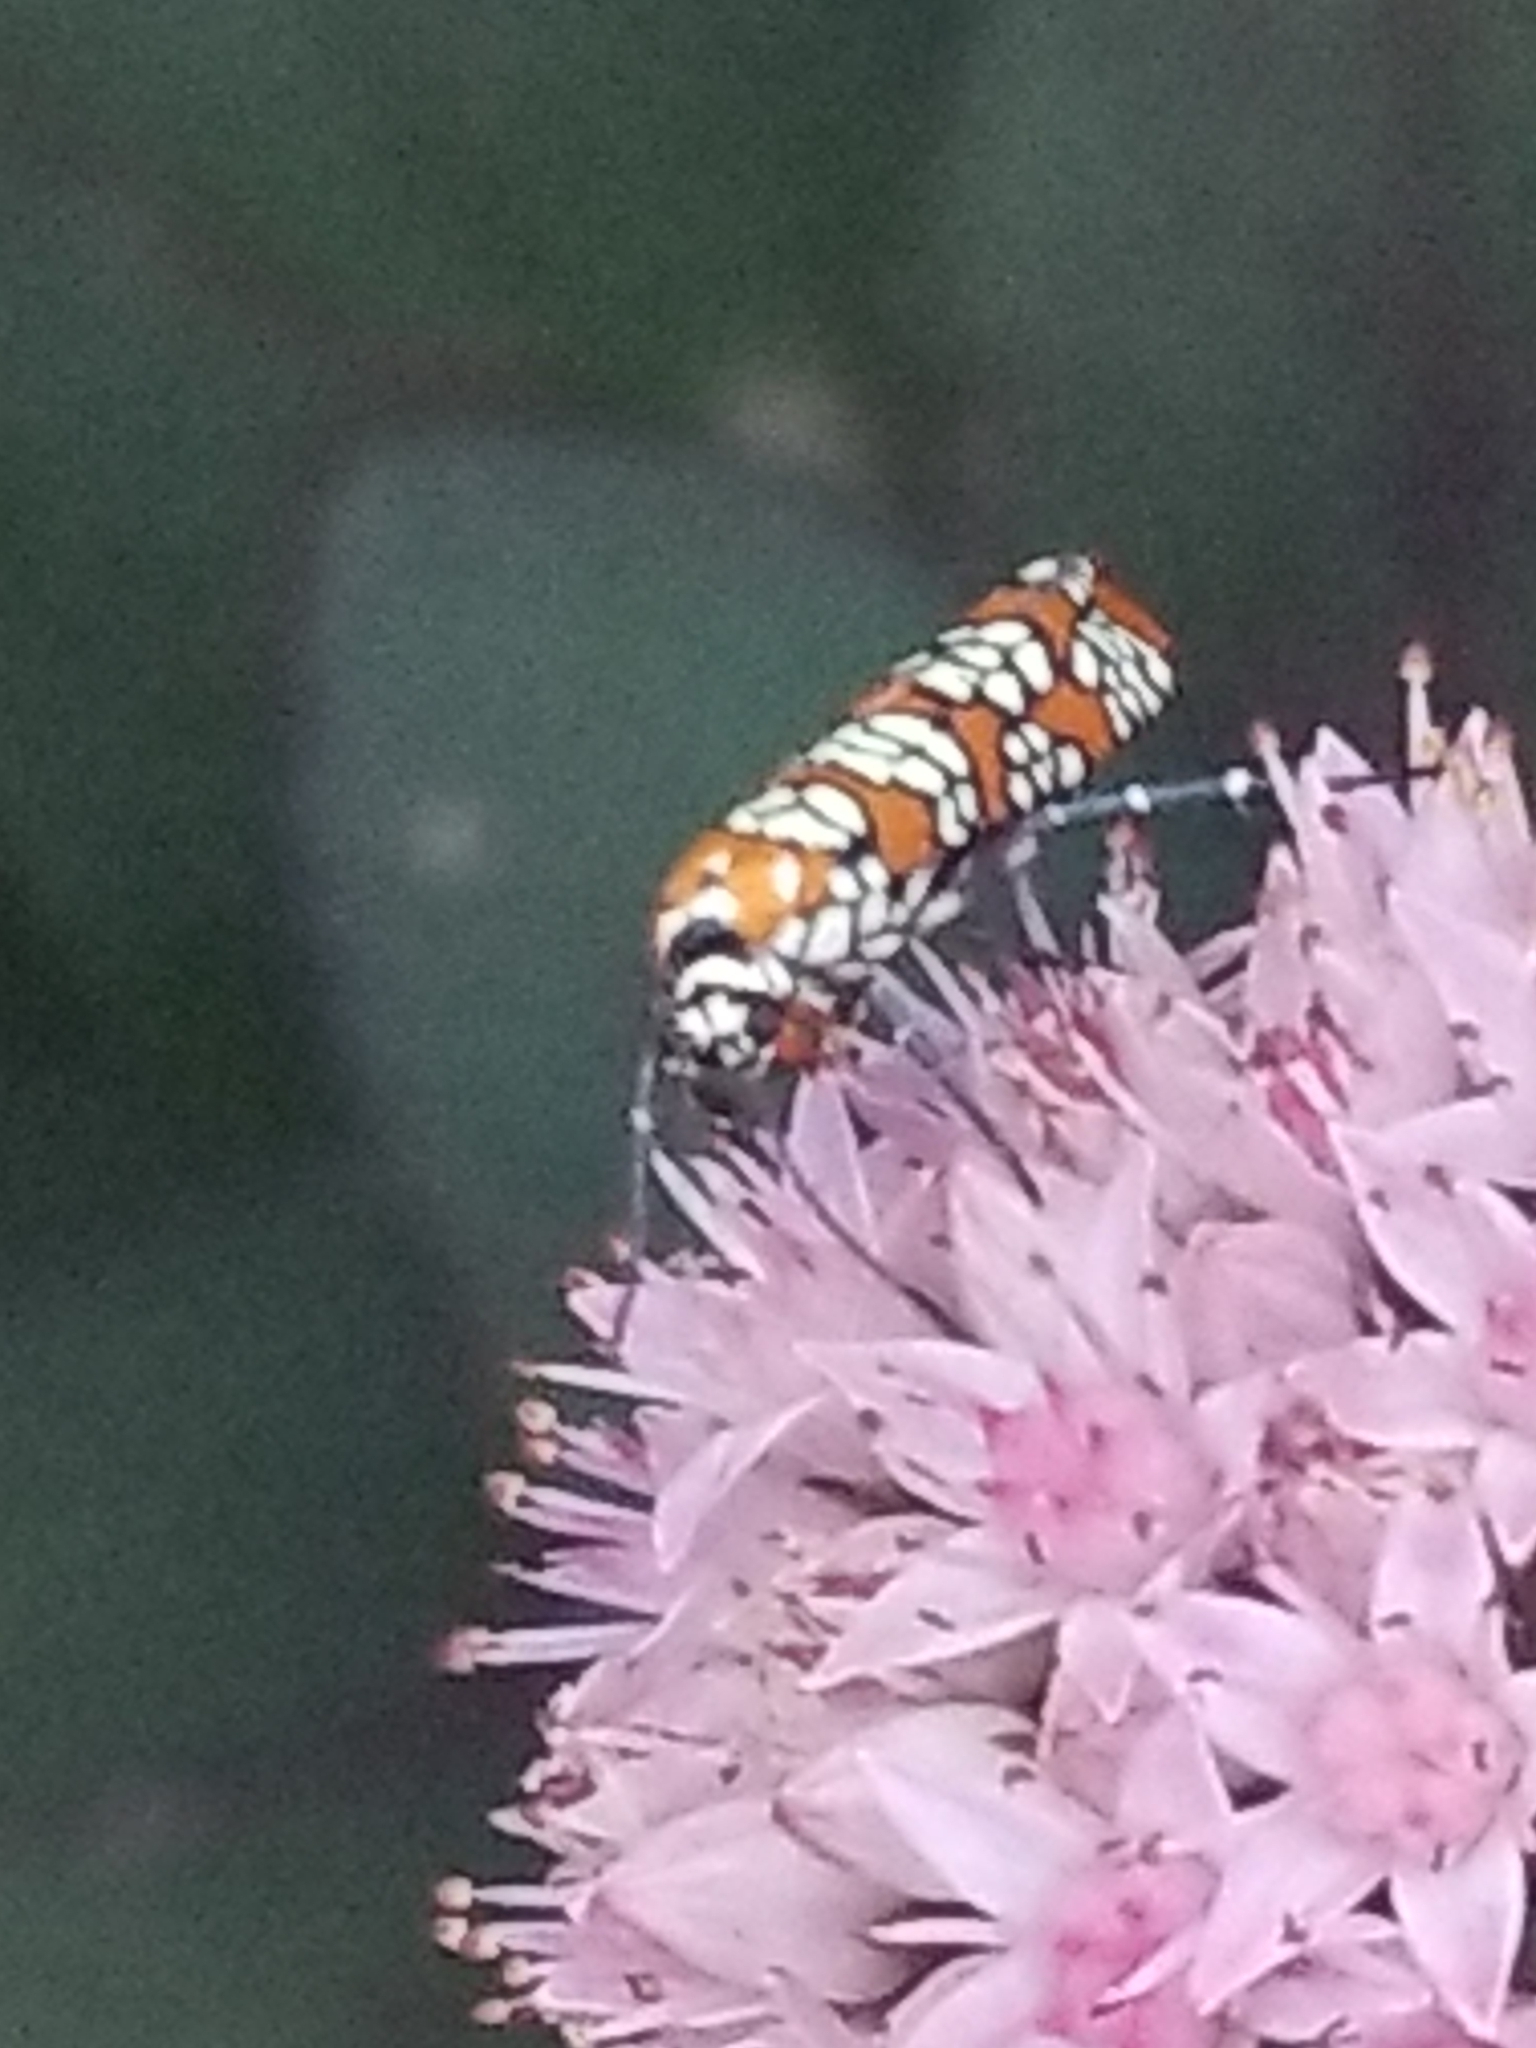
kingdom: Animalia
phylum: Arthropoda
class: Insecta
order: Lepidoptera
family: Attevidae
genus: Atteva
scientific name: Atteva punctella
